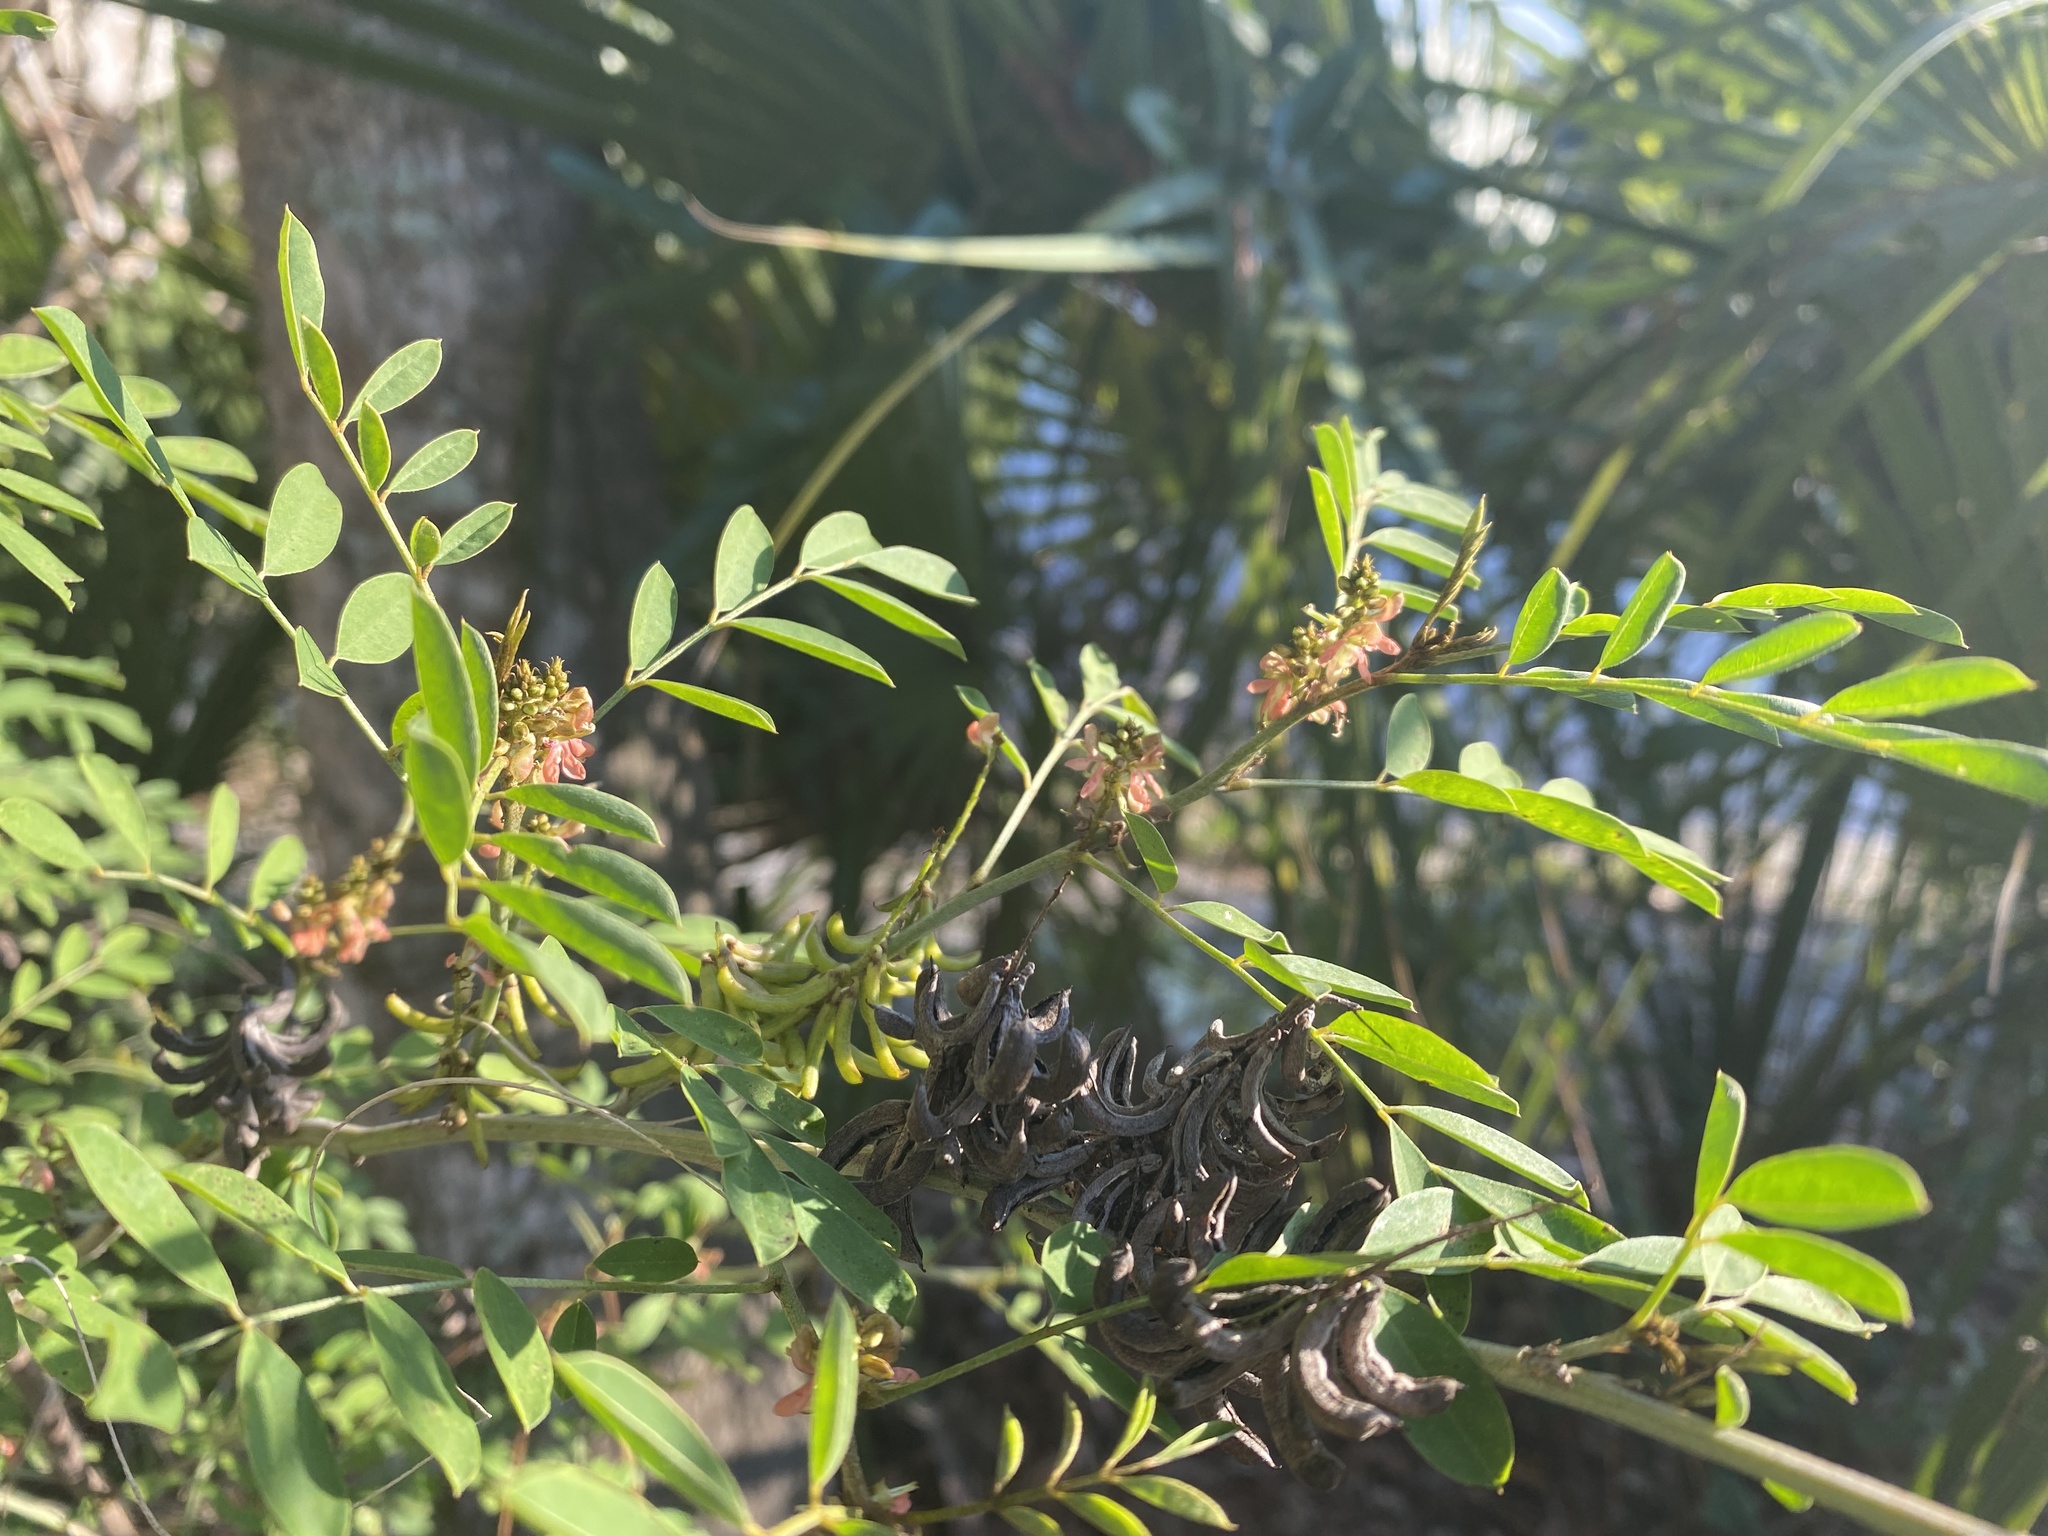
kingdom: Plantae
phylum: Tracheophyta
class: Magnoliopsida
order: Fabales
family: Fabaceae
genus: Indigofera
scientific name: Indigofera suffruticosa
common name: Anil de pasto
